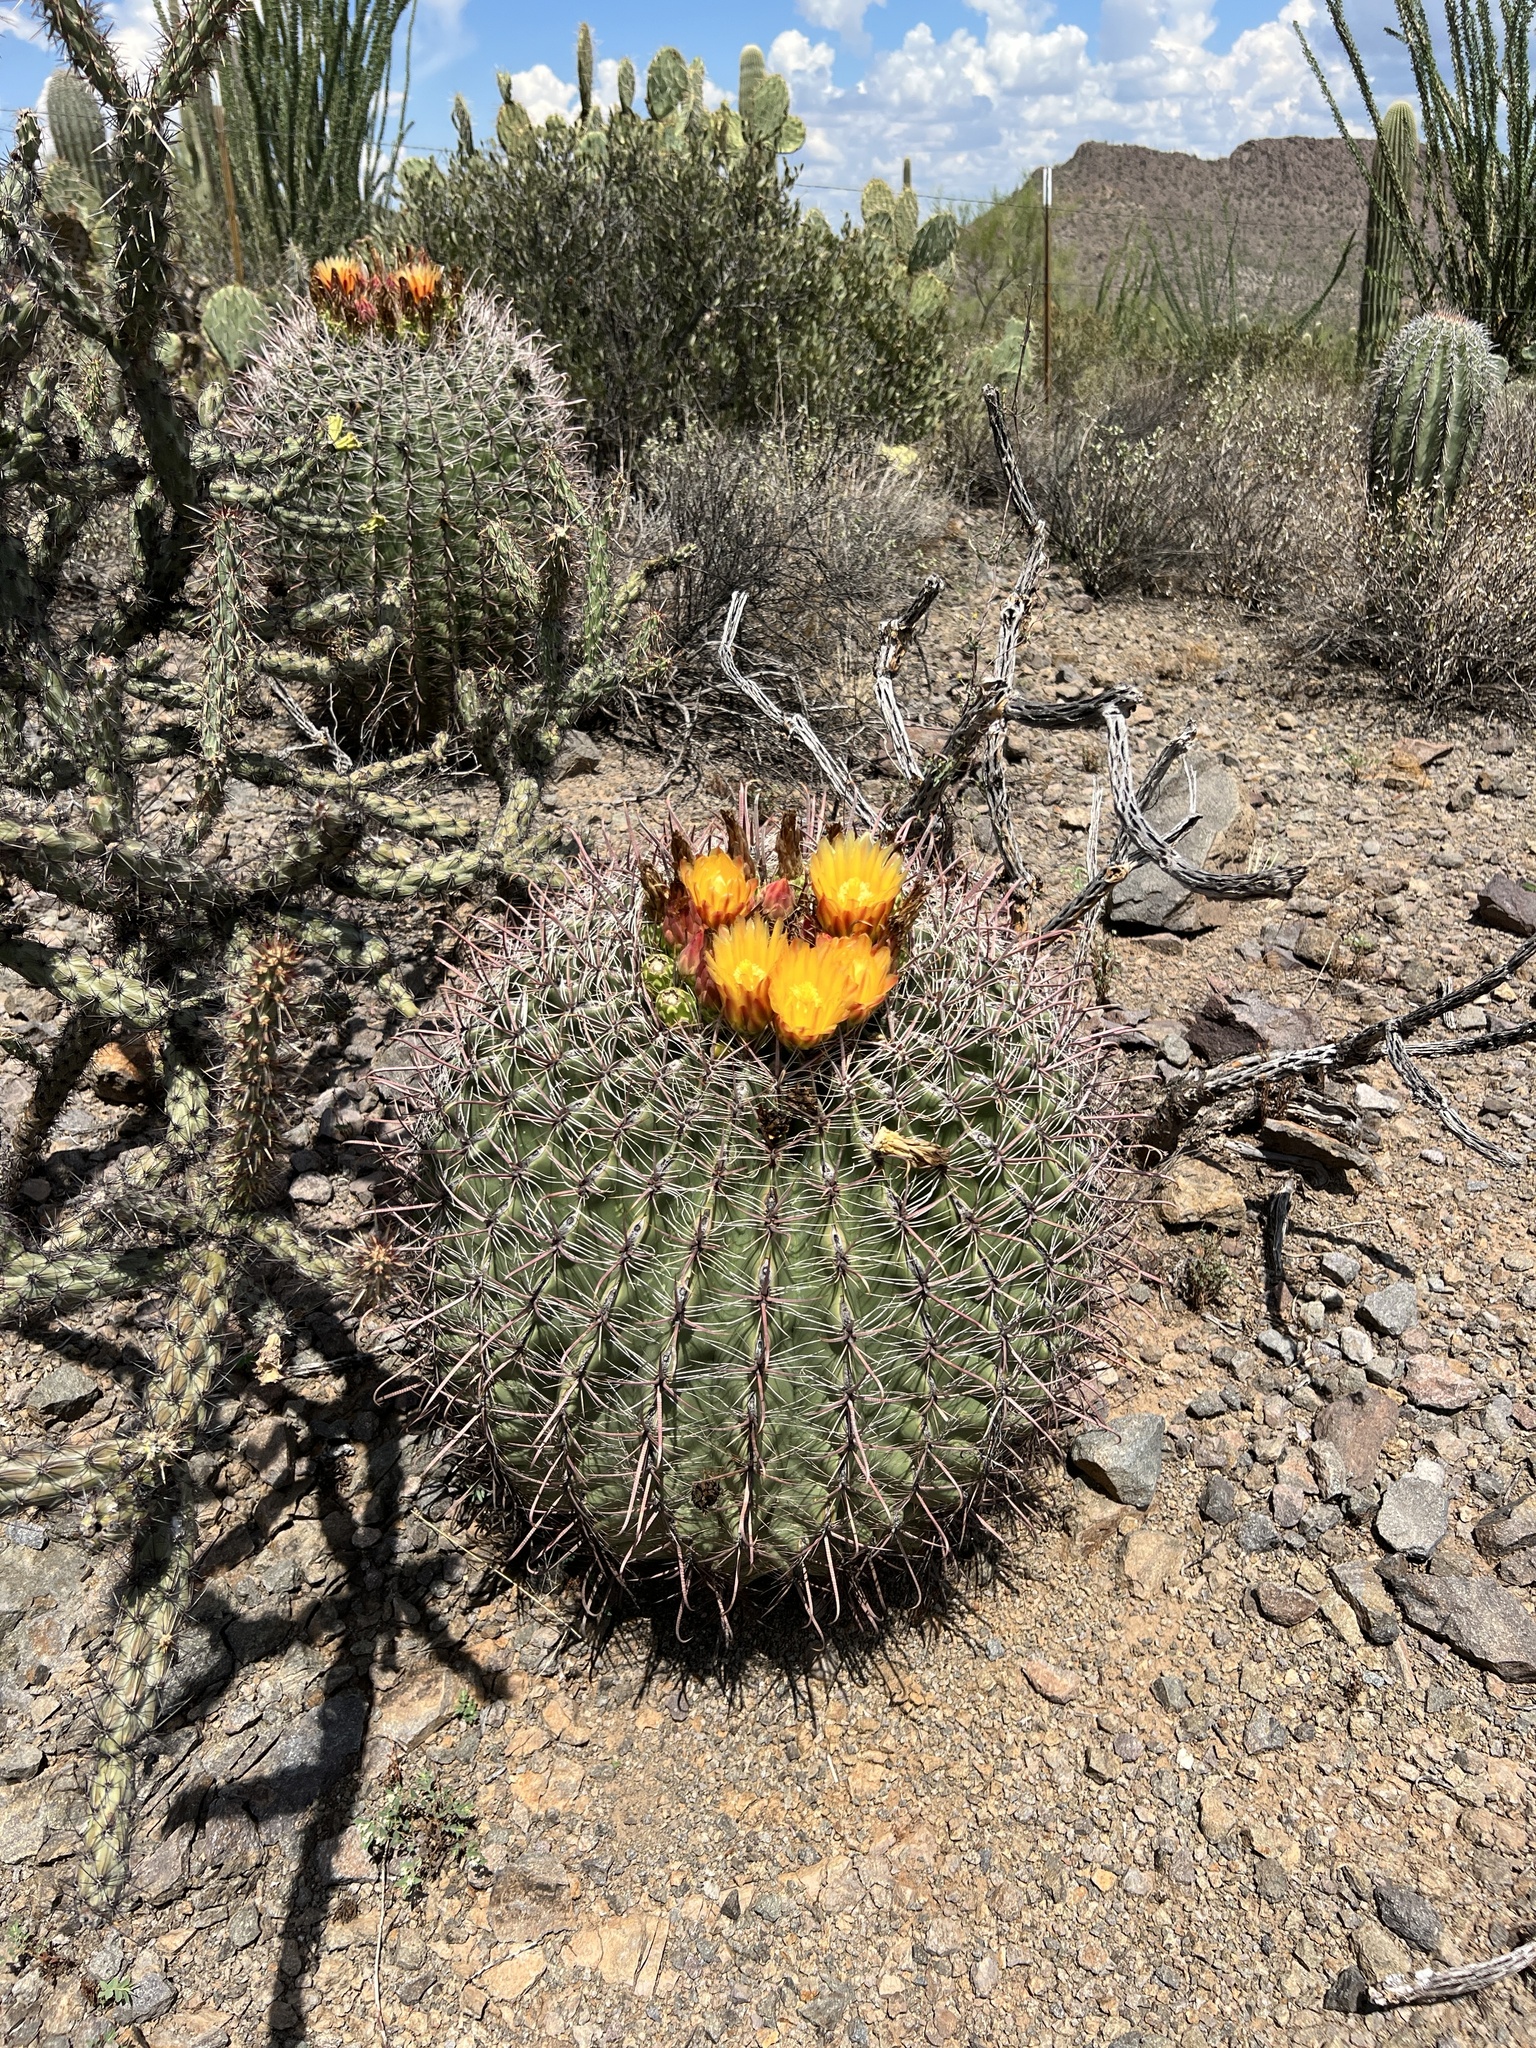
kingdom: Plantae
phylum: Tracheophyta
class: Magnoliopsida
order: Caryophyllales
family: Cactaceae
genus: Ferocactus
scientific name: Ferocactus wislizeni
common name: Candy barrel cactus
